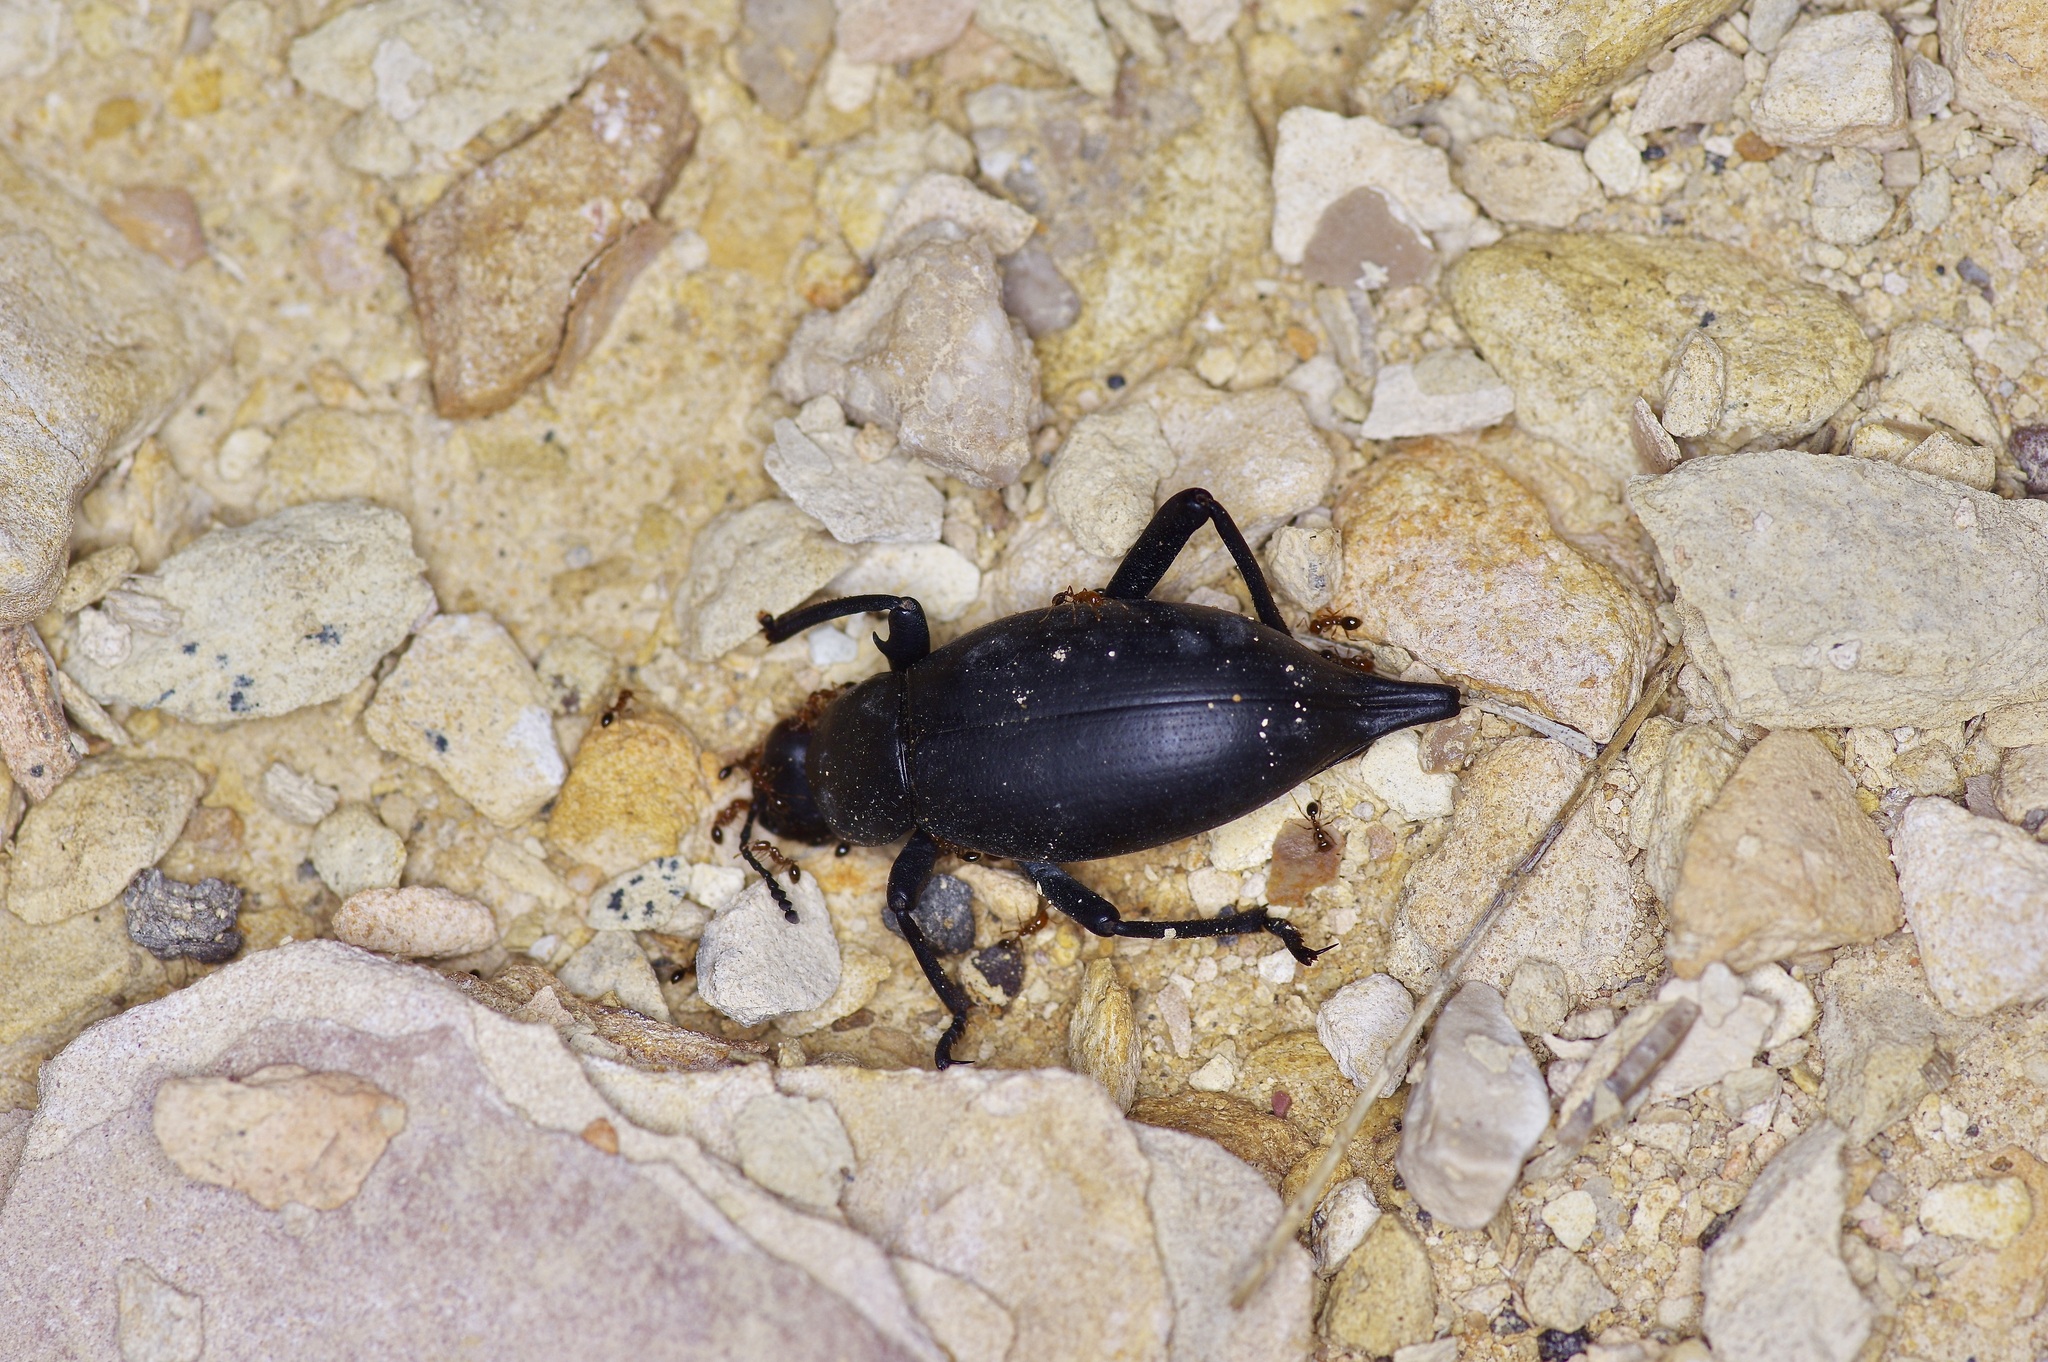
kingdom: Animalia
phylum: Arthropoda
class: Insecta
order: Coleoptera
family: Tenebrionidae
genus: Eleodes
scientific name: Eleodes spinipes
